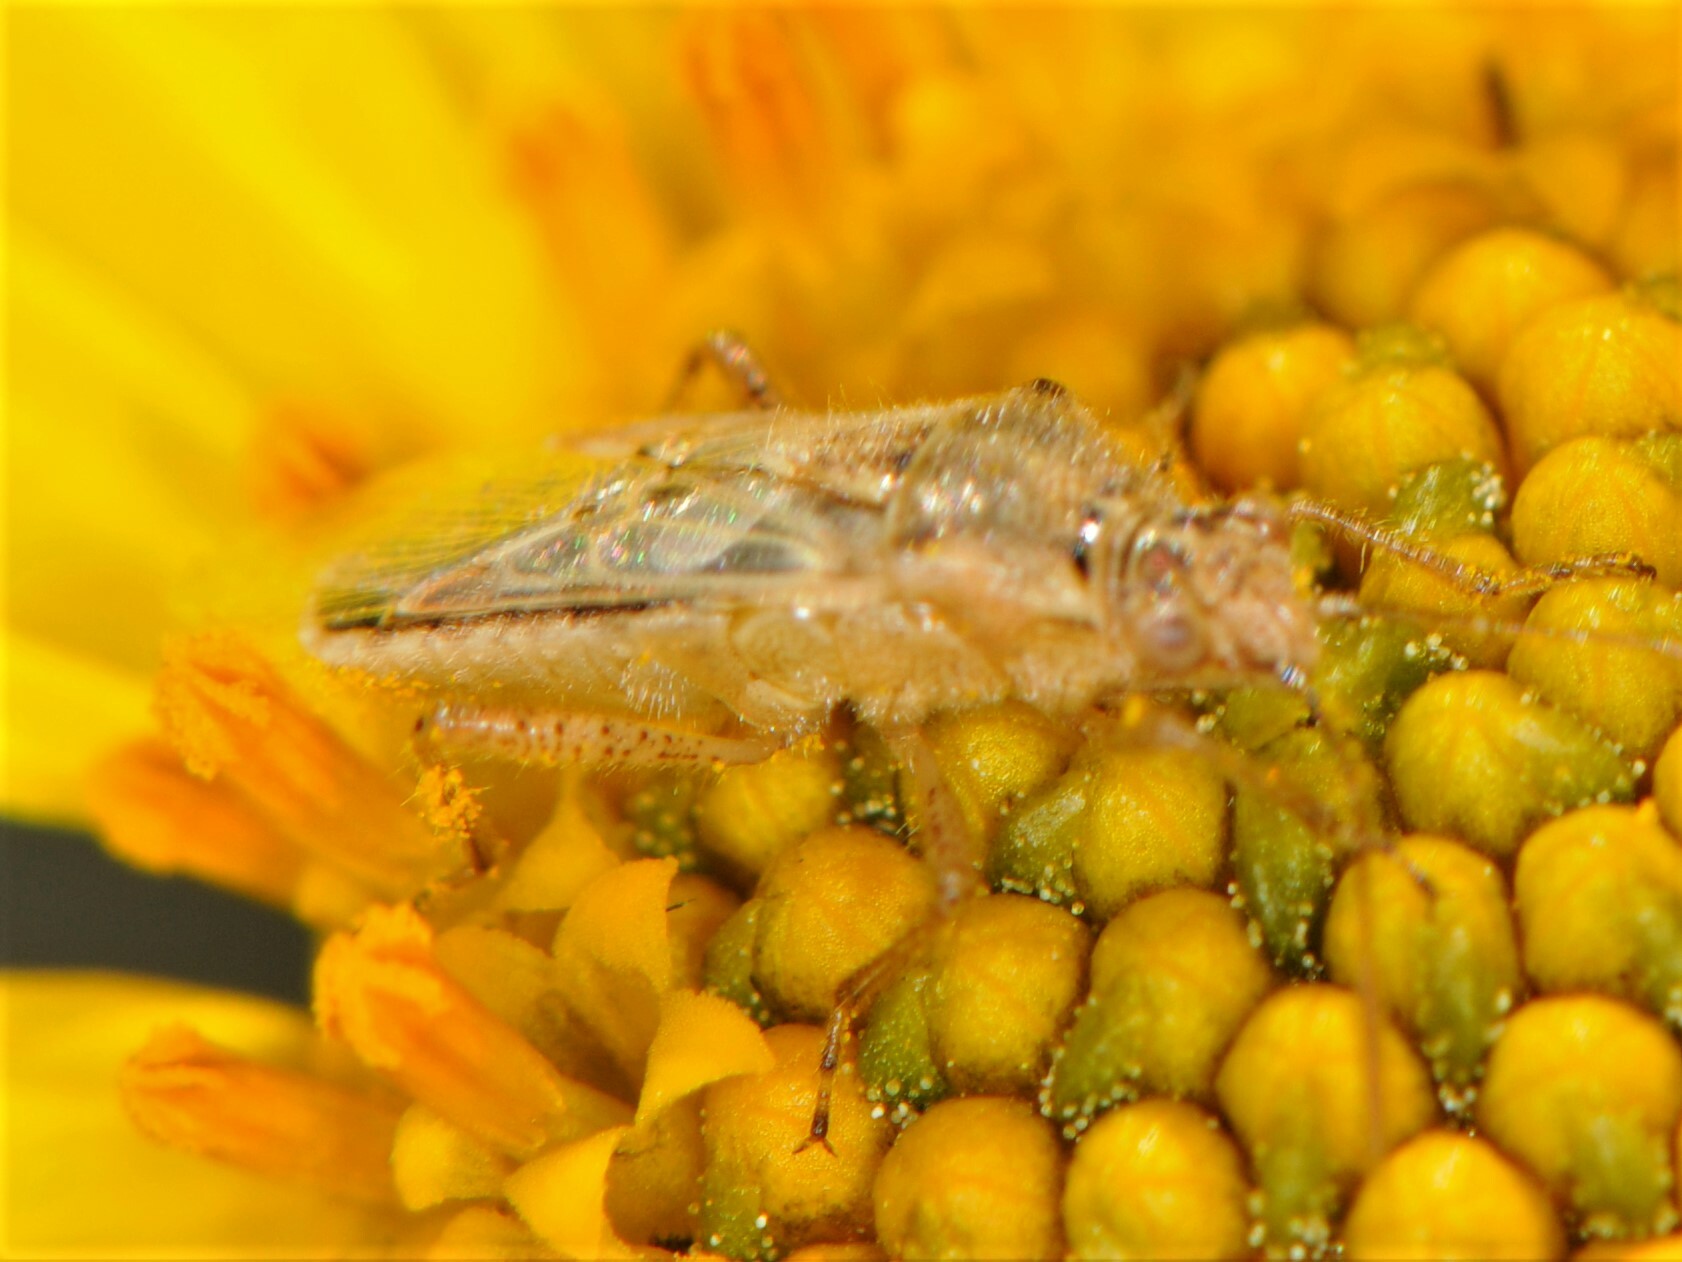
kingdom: Animalia
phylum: Arthropoda
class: Insecta
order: Hemiptera
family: Rhopalidae
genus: Liorhyssus
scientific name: Liorhyssus hyalinus
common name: Scentless plant bug
